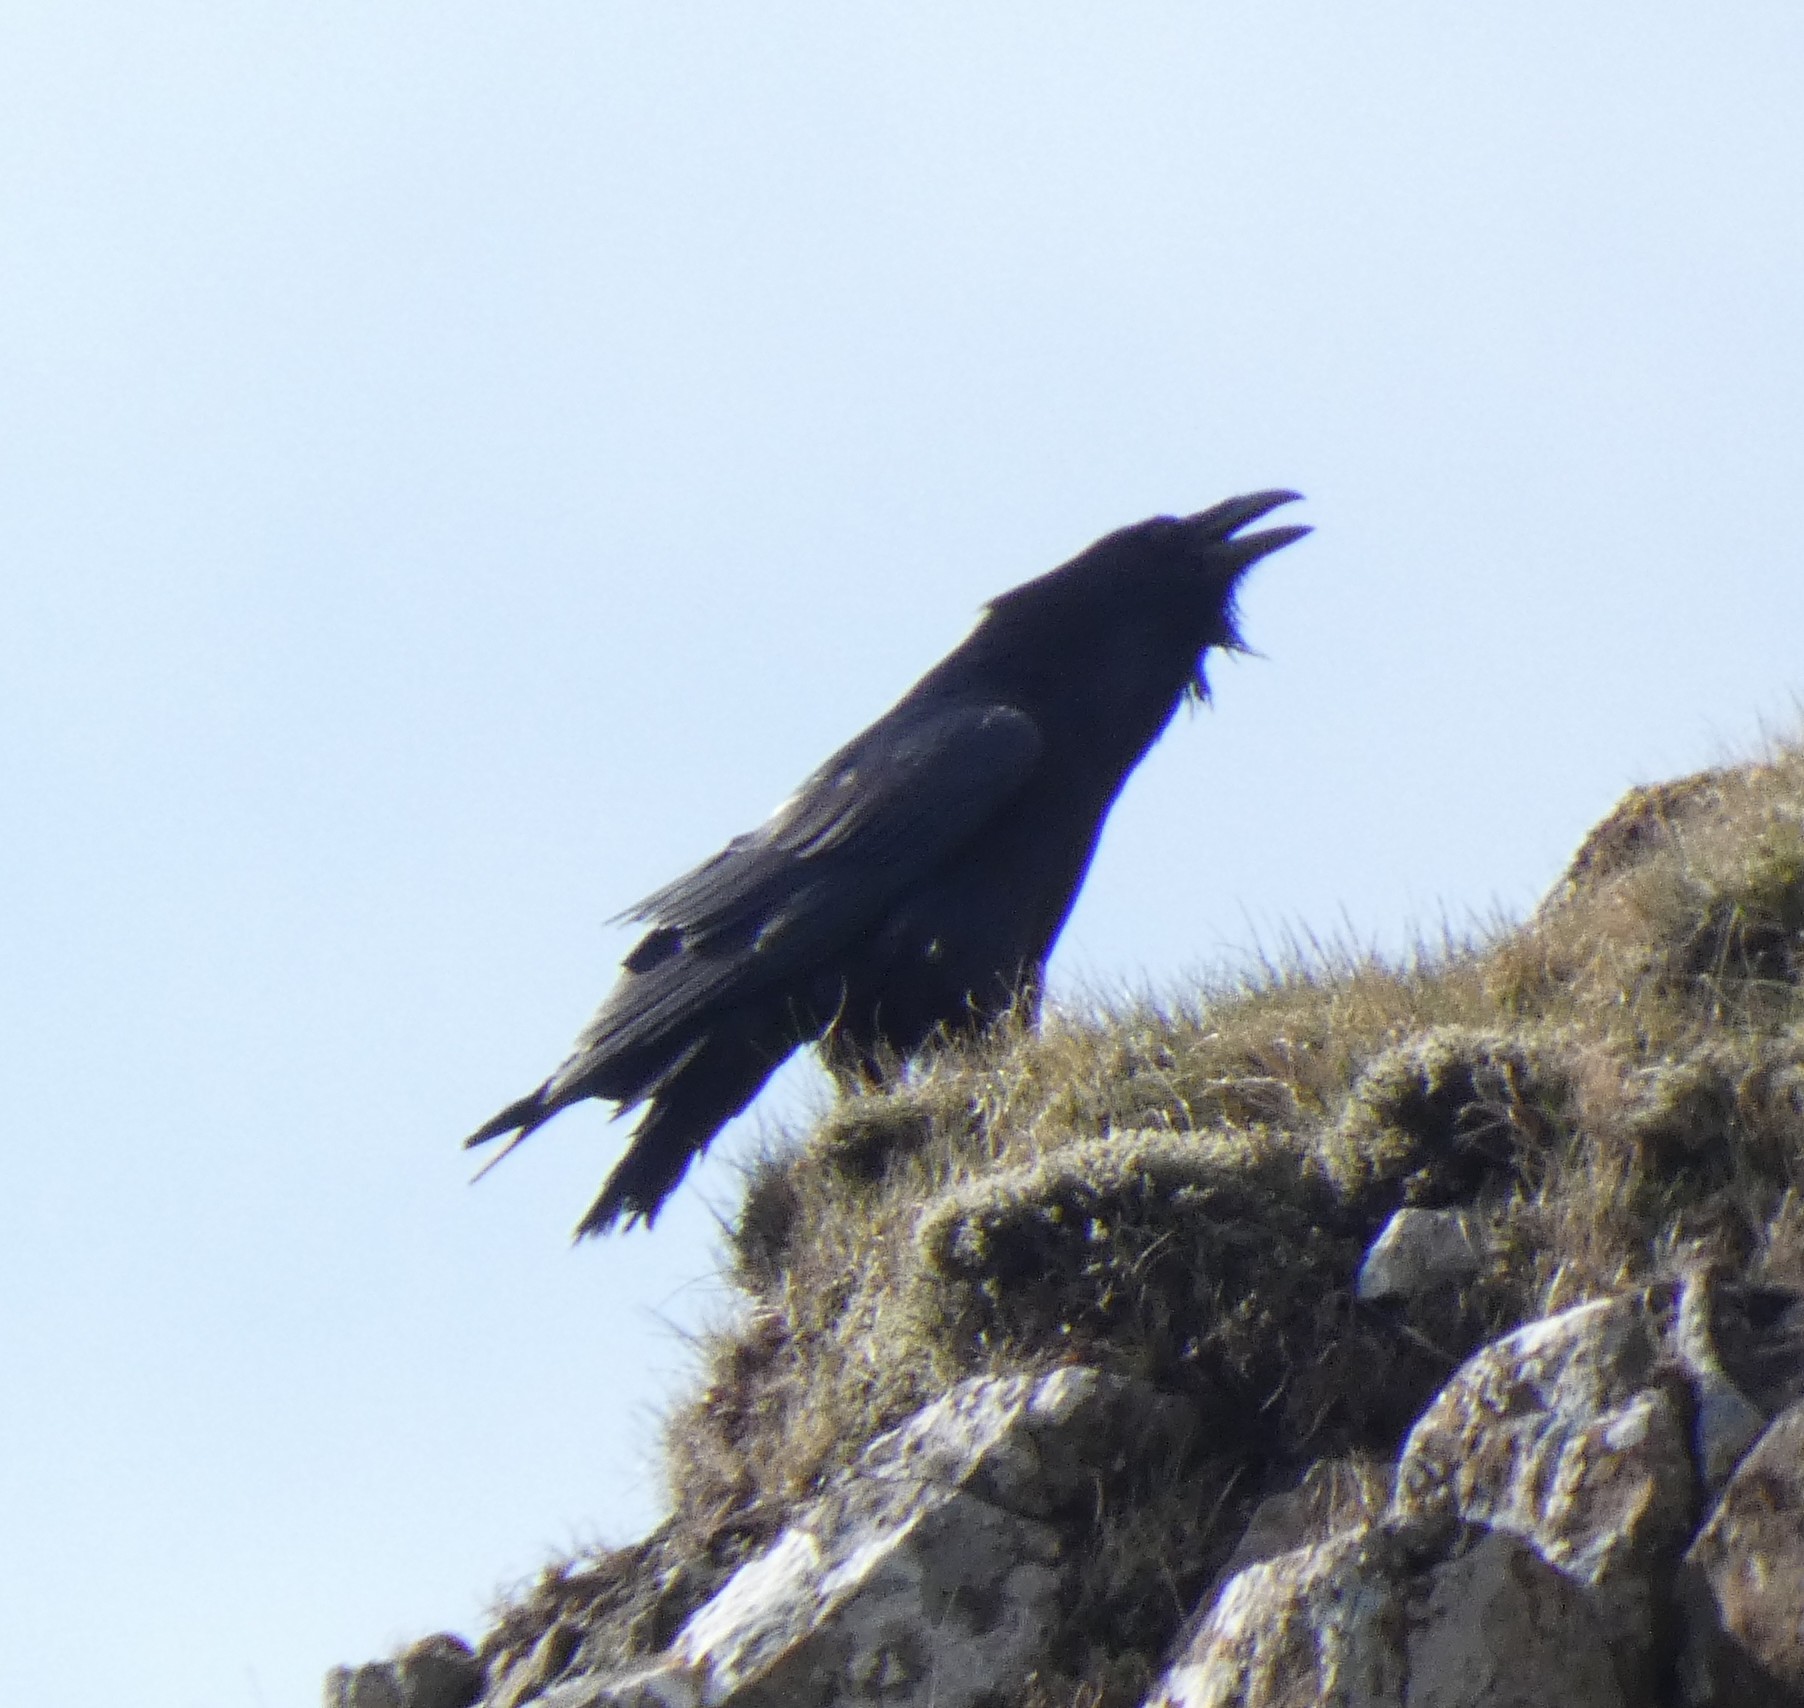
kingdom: Animalia
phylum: Chordata
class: Aves
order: Passeriformes
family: Corvidae
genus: Corvus
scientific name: Corvus corax
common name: Common raven
